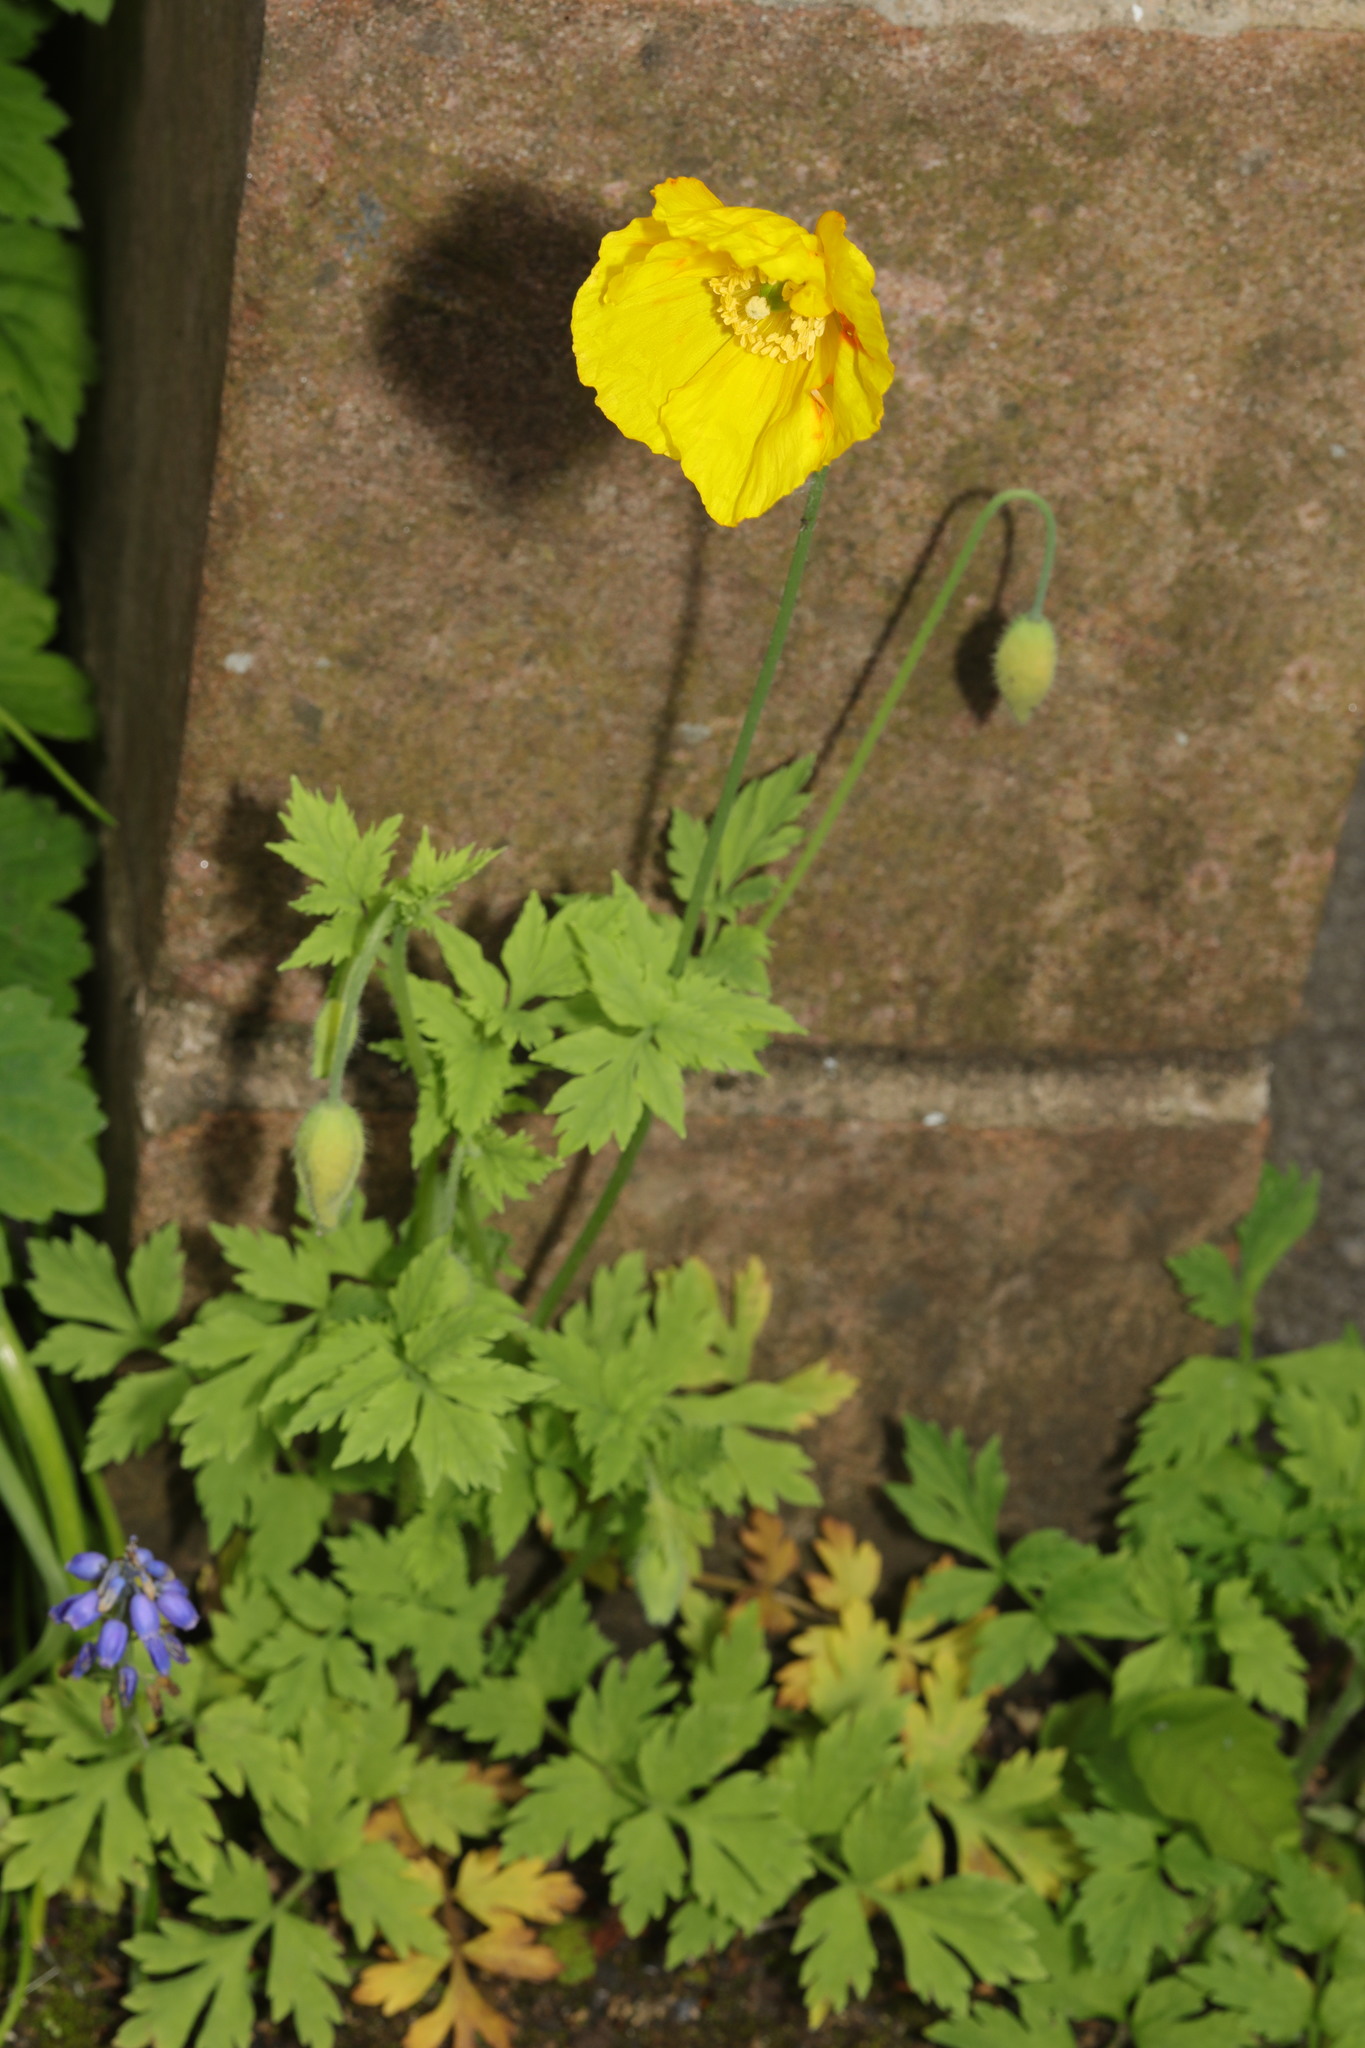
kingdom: Plantae
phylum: Tracheophyta
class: Magnoliopsida
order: Ranunculales
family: Papaveraceae
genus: Papaver
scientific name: Papaver cambricum
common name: Poppy
